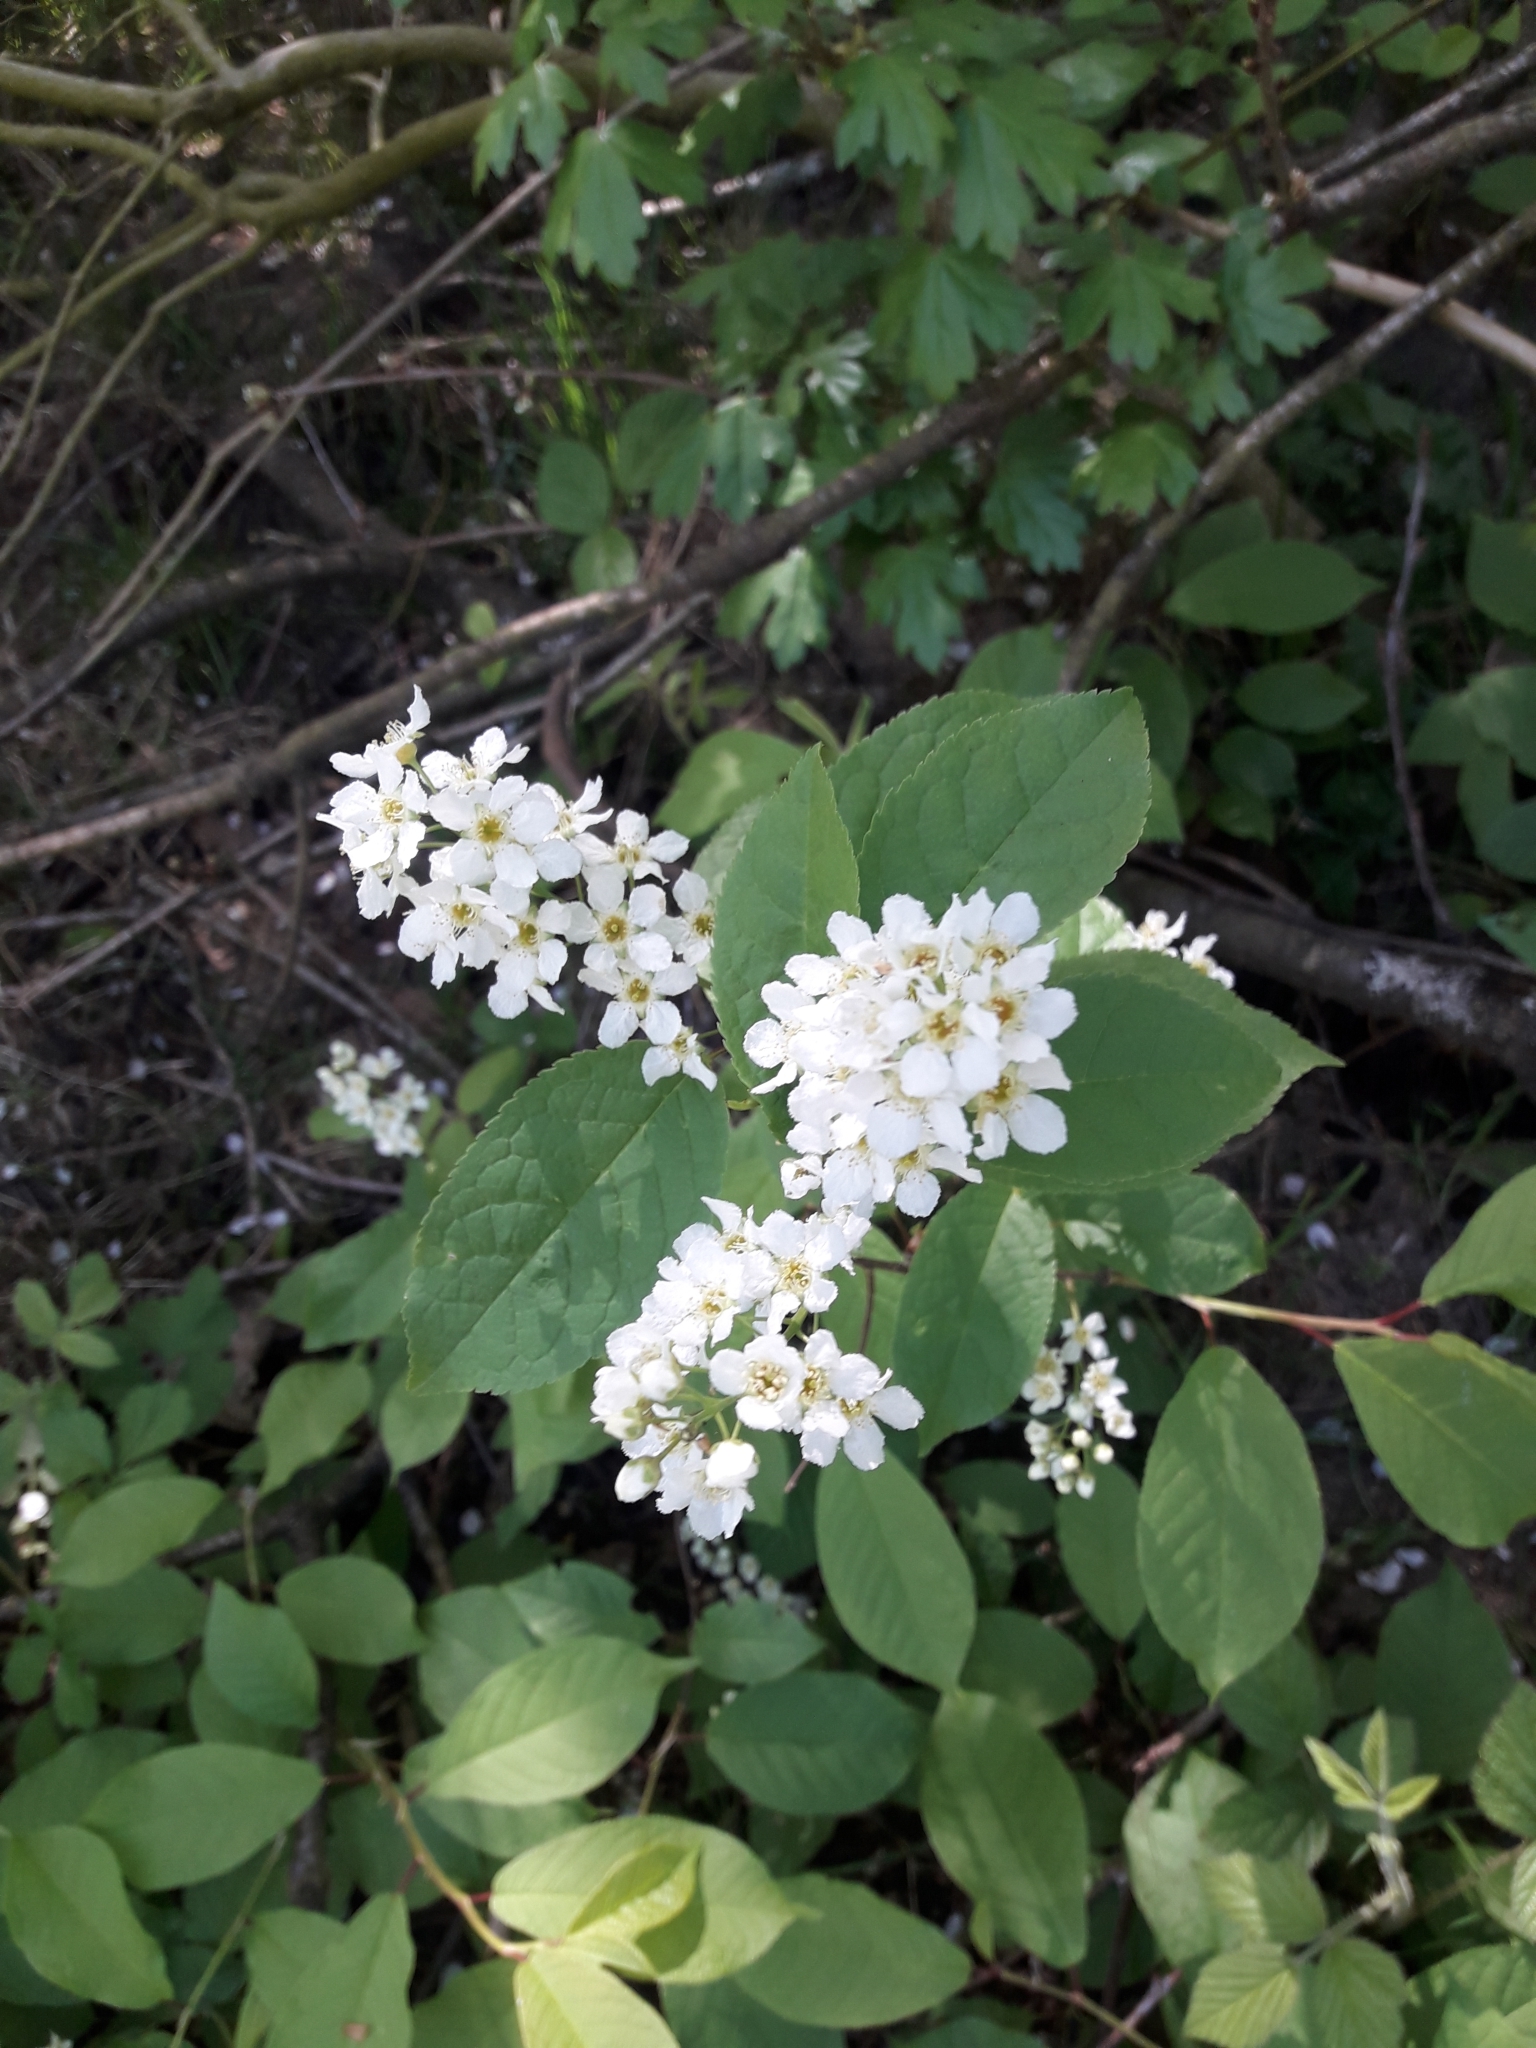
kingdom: Plantae
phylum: Tracheophyta
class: Magnoliopsida
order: Rosales
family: Rosaceae
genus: Prunus
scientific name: Prunus padus
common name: Bird cherry
